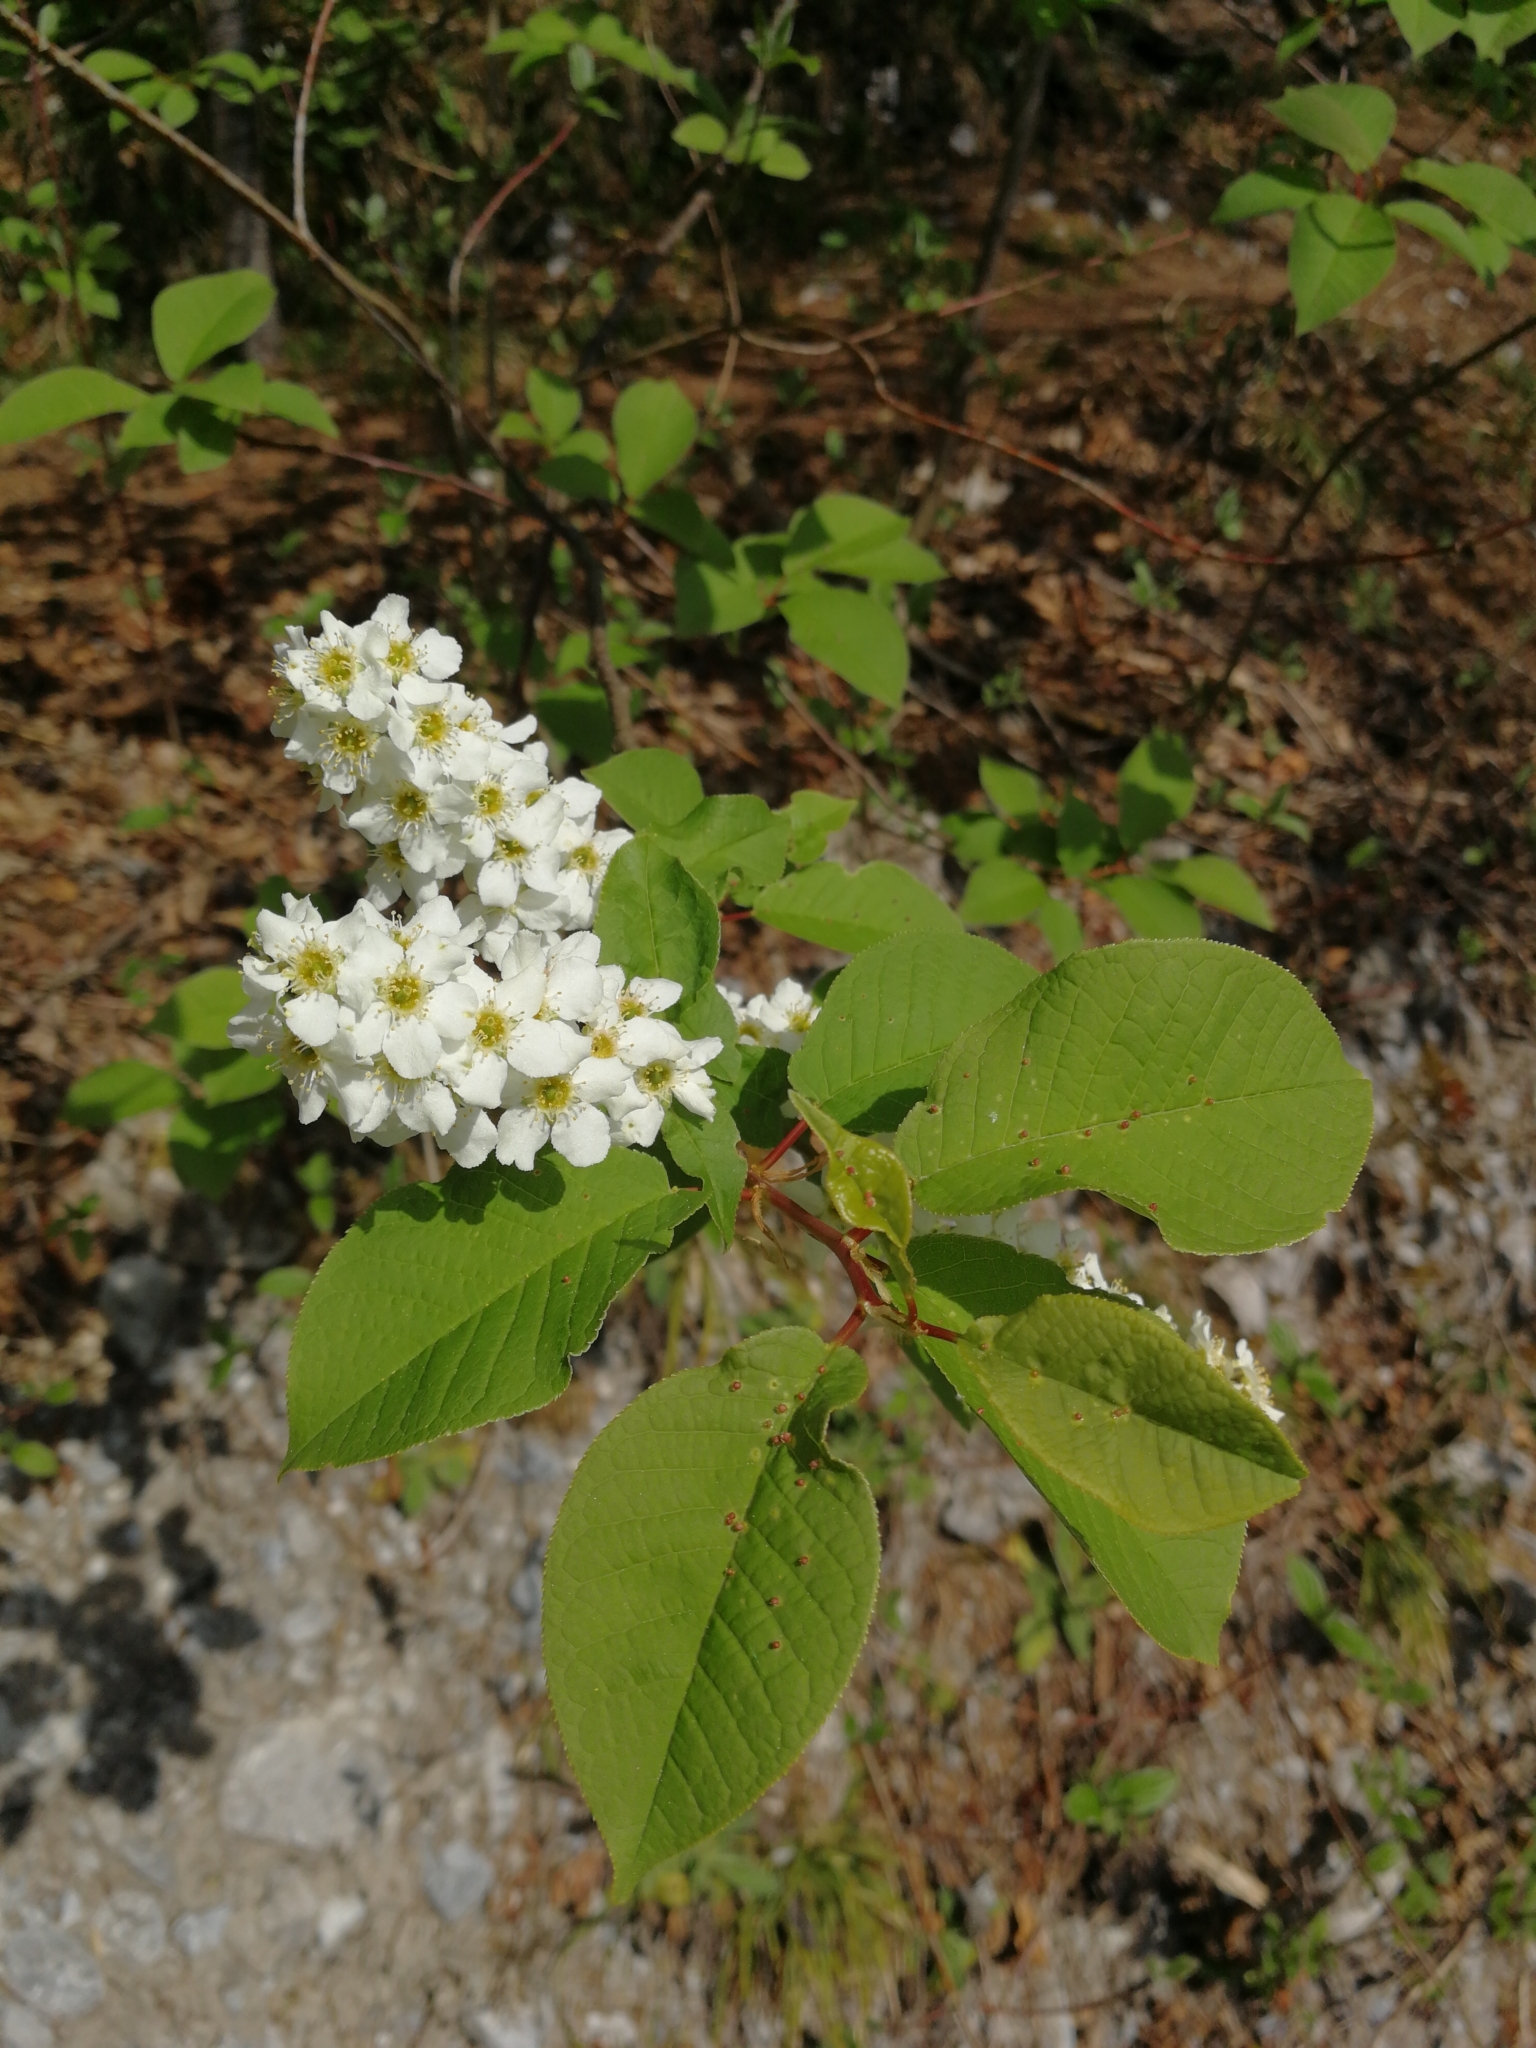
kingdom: Plantae
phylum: Tracheophyta
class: Magnoliopsida
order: Rosales
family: Rosaceae
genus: Prunus
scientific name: Prunus padus
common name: Bird cherry
